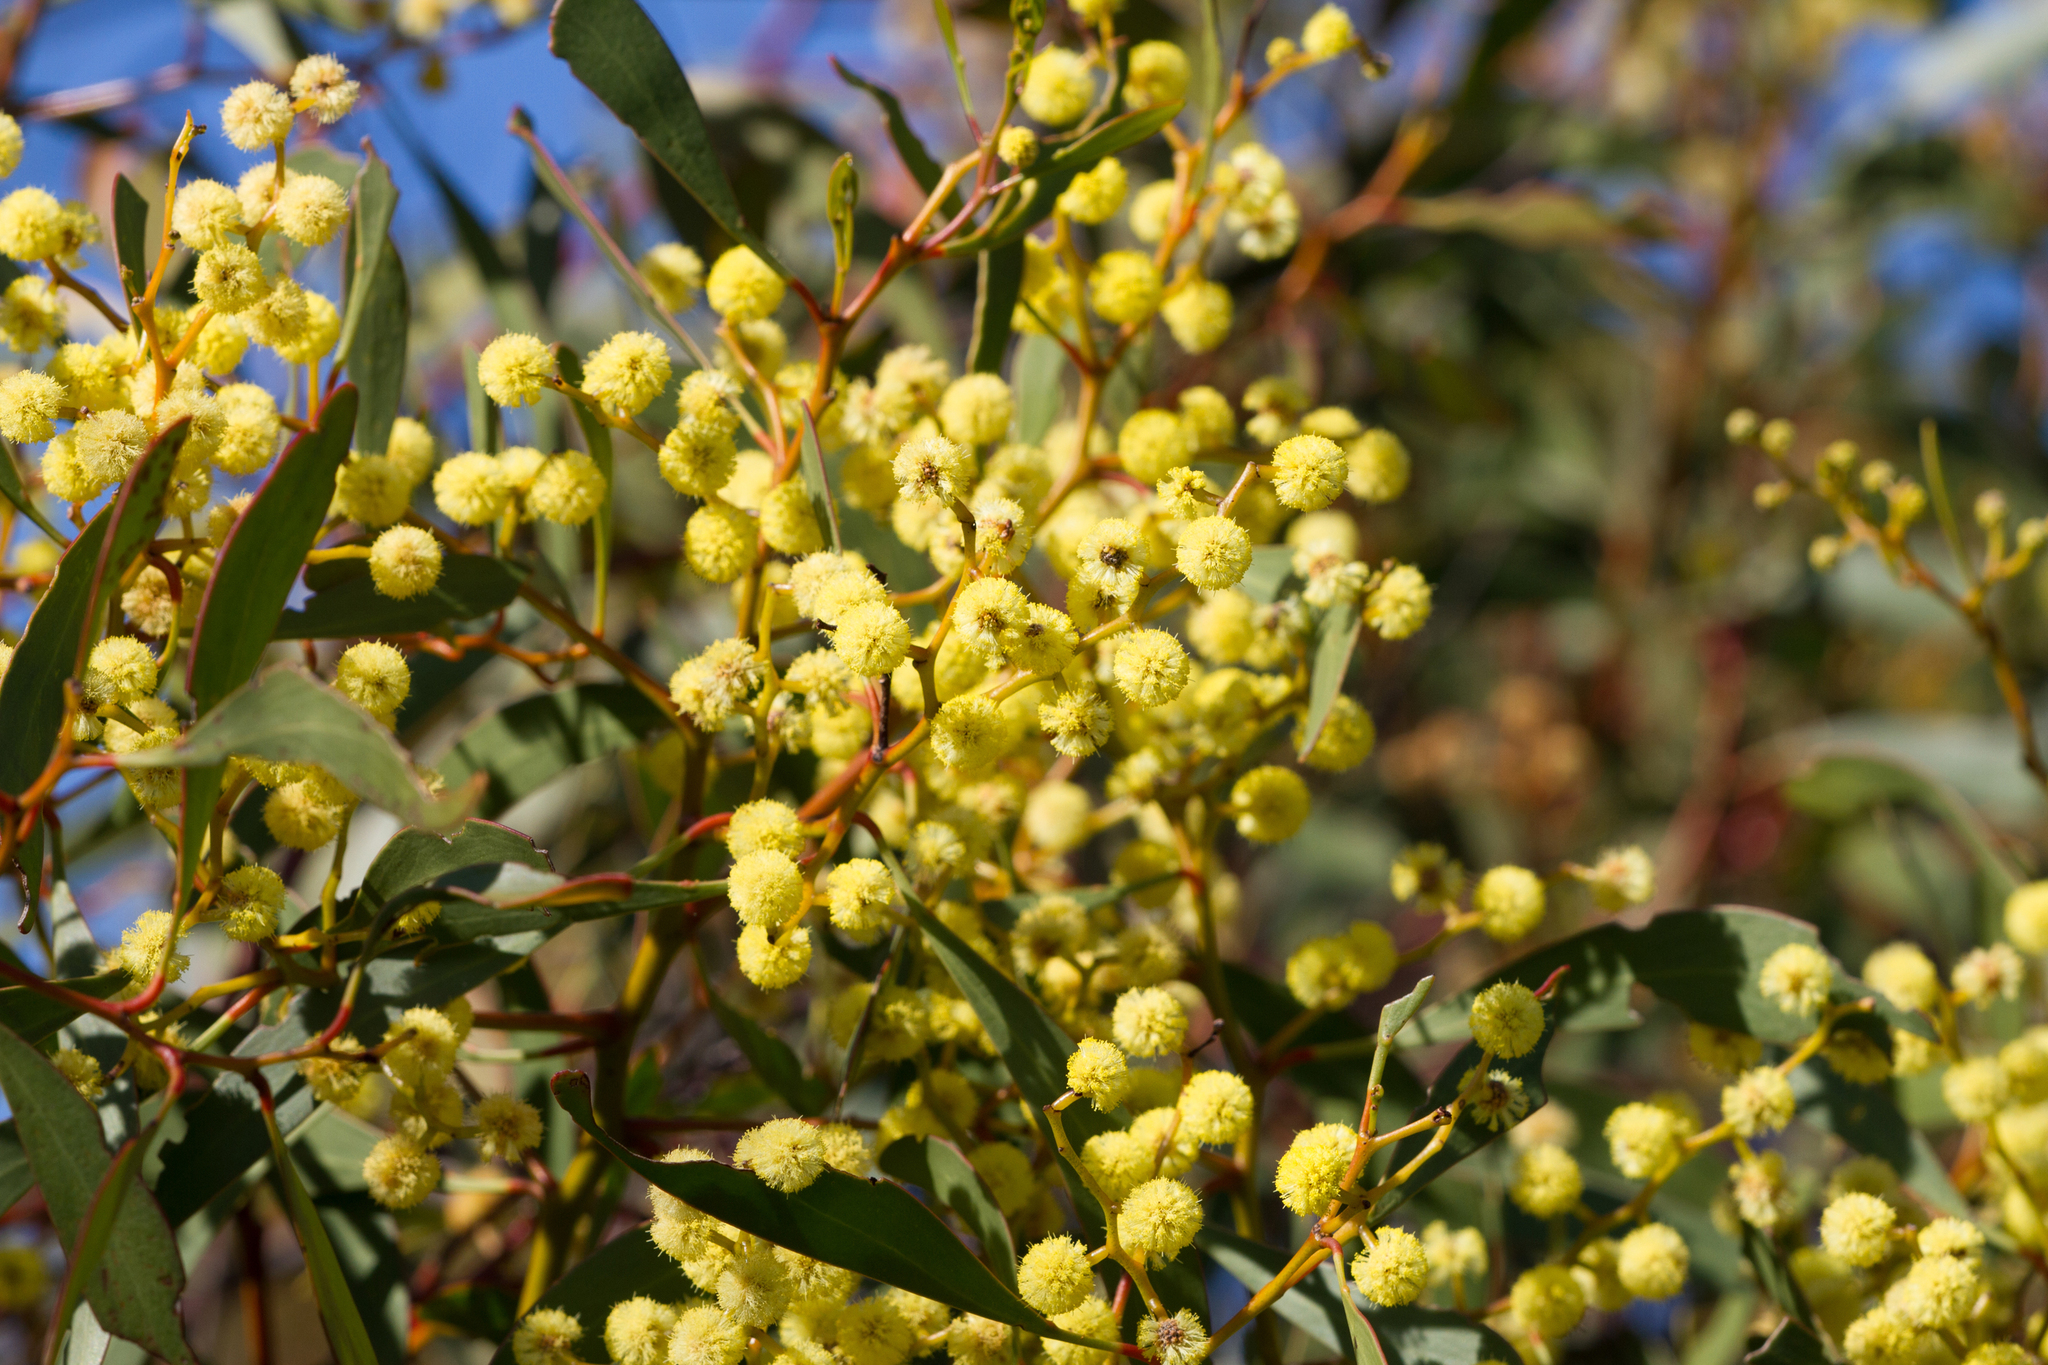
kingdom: Plantae
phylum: Tracheophyta
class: Magnoliopsida
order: Fabales
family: Fabaceae
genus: Acacia
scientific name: Acacia pycnantha
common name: Golden wattle
